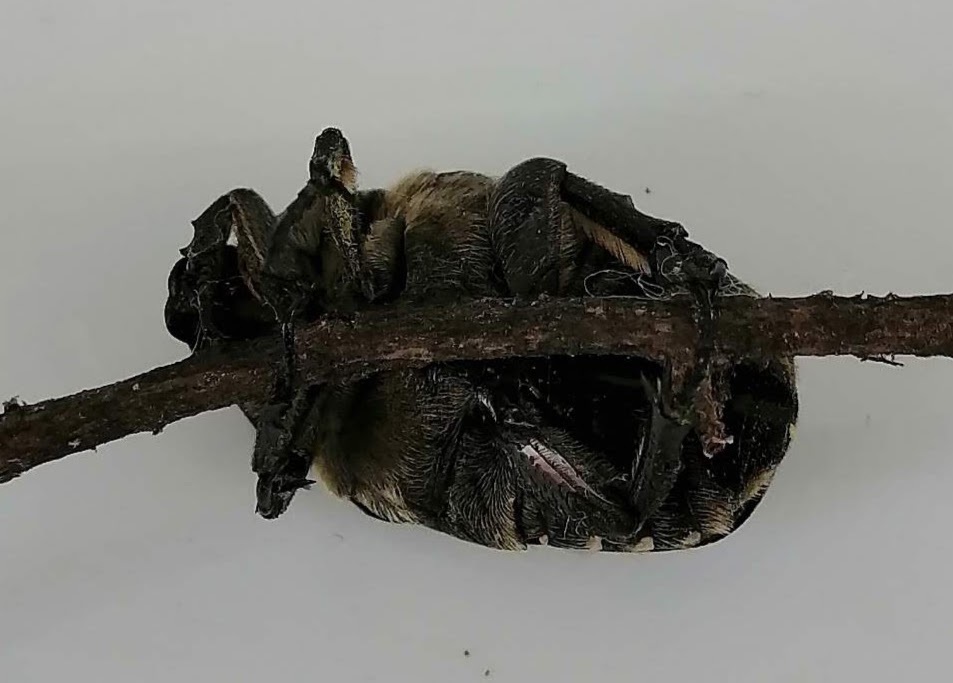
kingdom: Animalia
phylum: Arthropoda
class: Insecta
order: Coleoptera
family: Scarabaeidae
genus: Protaetia
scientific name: Protaetia cuprea
